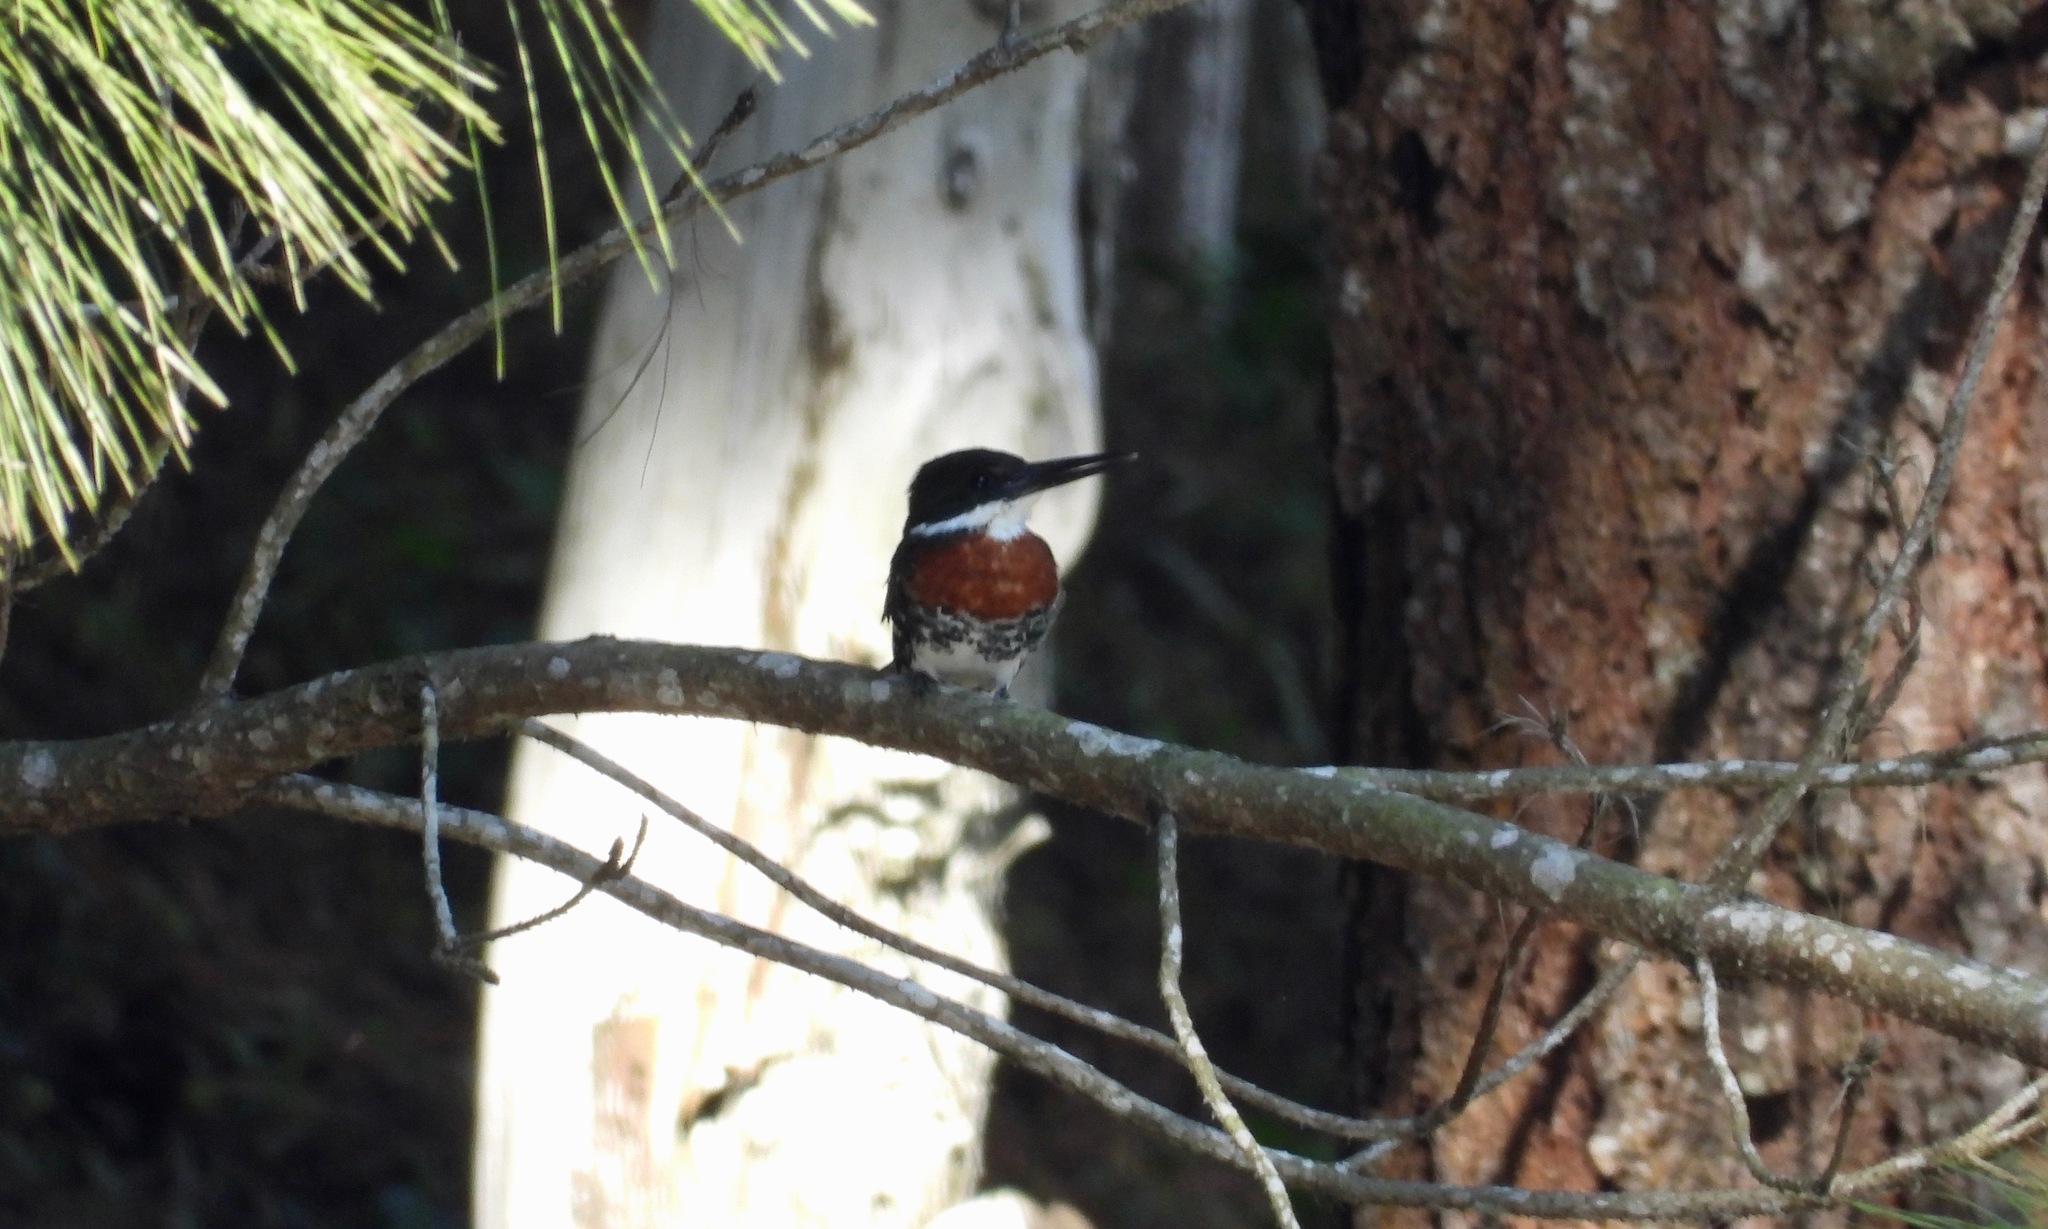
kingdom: Animalia
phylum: Chordata
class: Aves
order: Coraciiformes
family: Alcedinidae
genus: Chloroceryle
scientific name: Chloroceryle americana
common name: Green kingfisher
